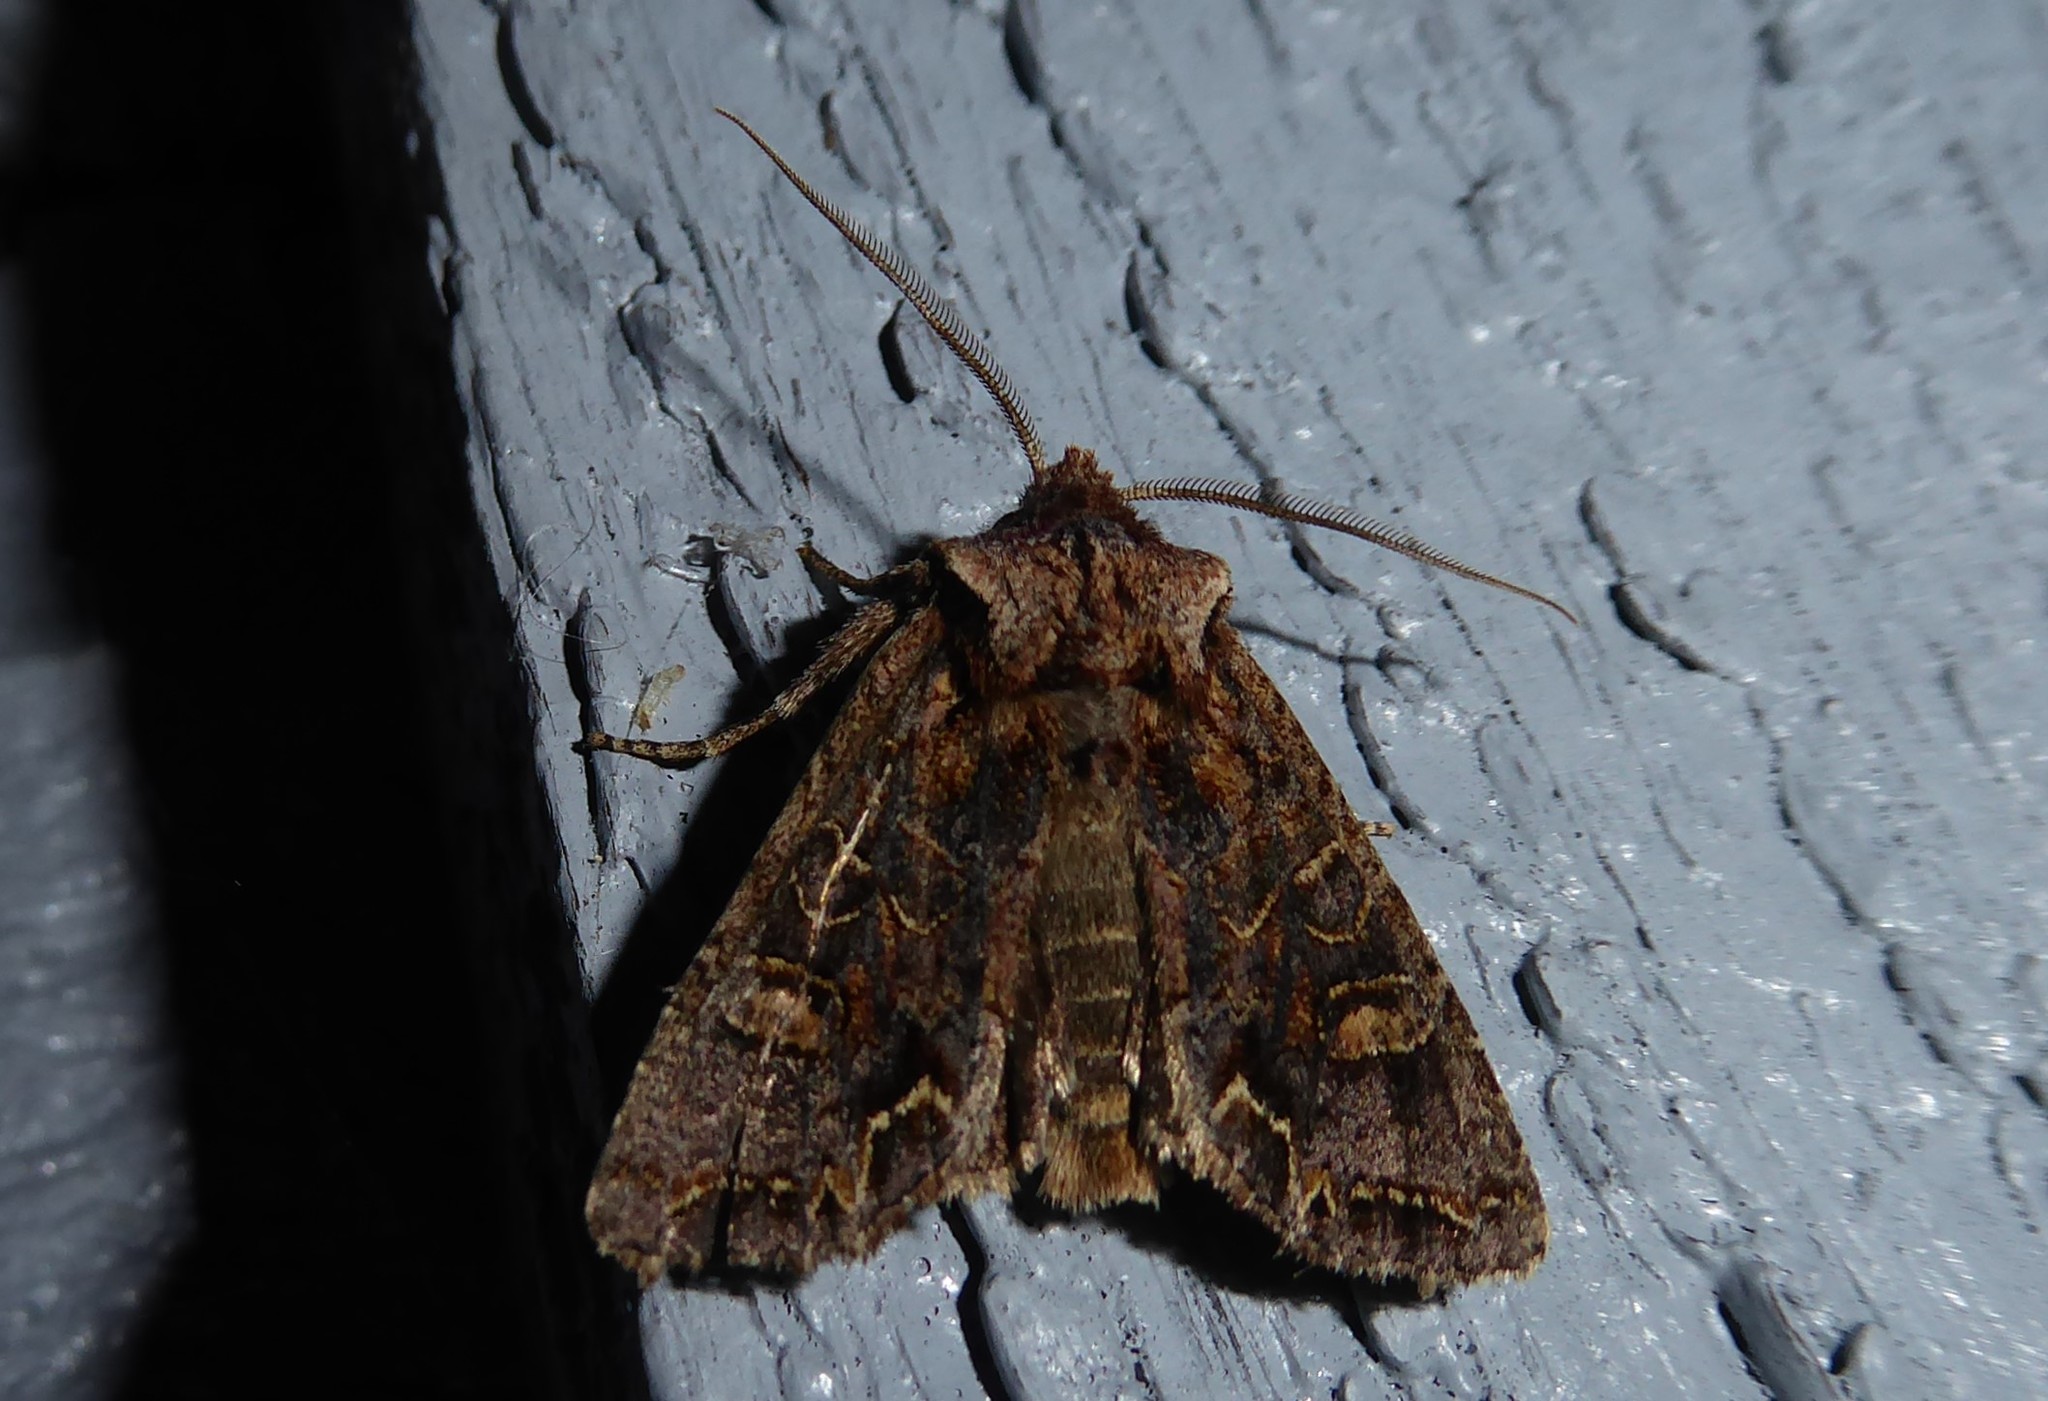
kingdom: Animalia
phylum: Arthropoda
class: Insecta
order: Lepidoptera
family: Noctuidae
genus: Ichneutica
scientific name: Ichneutica insignis
